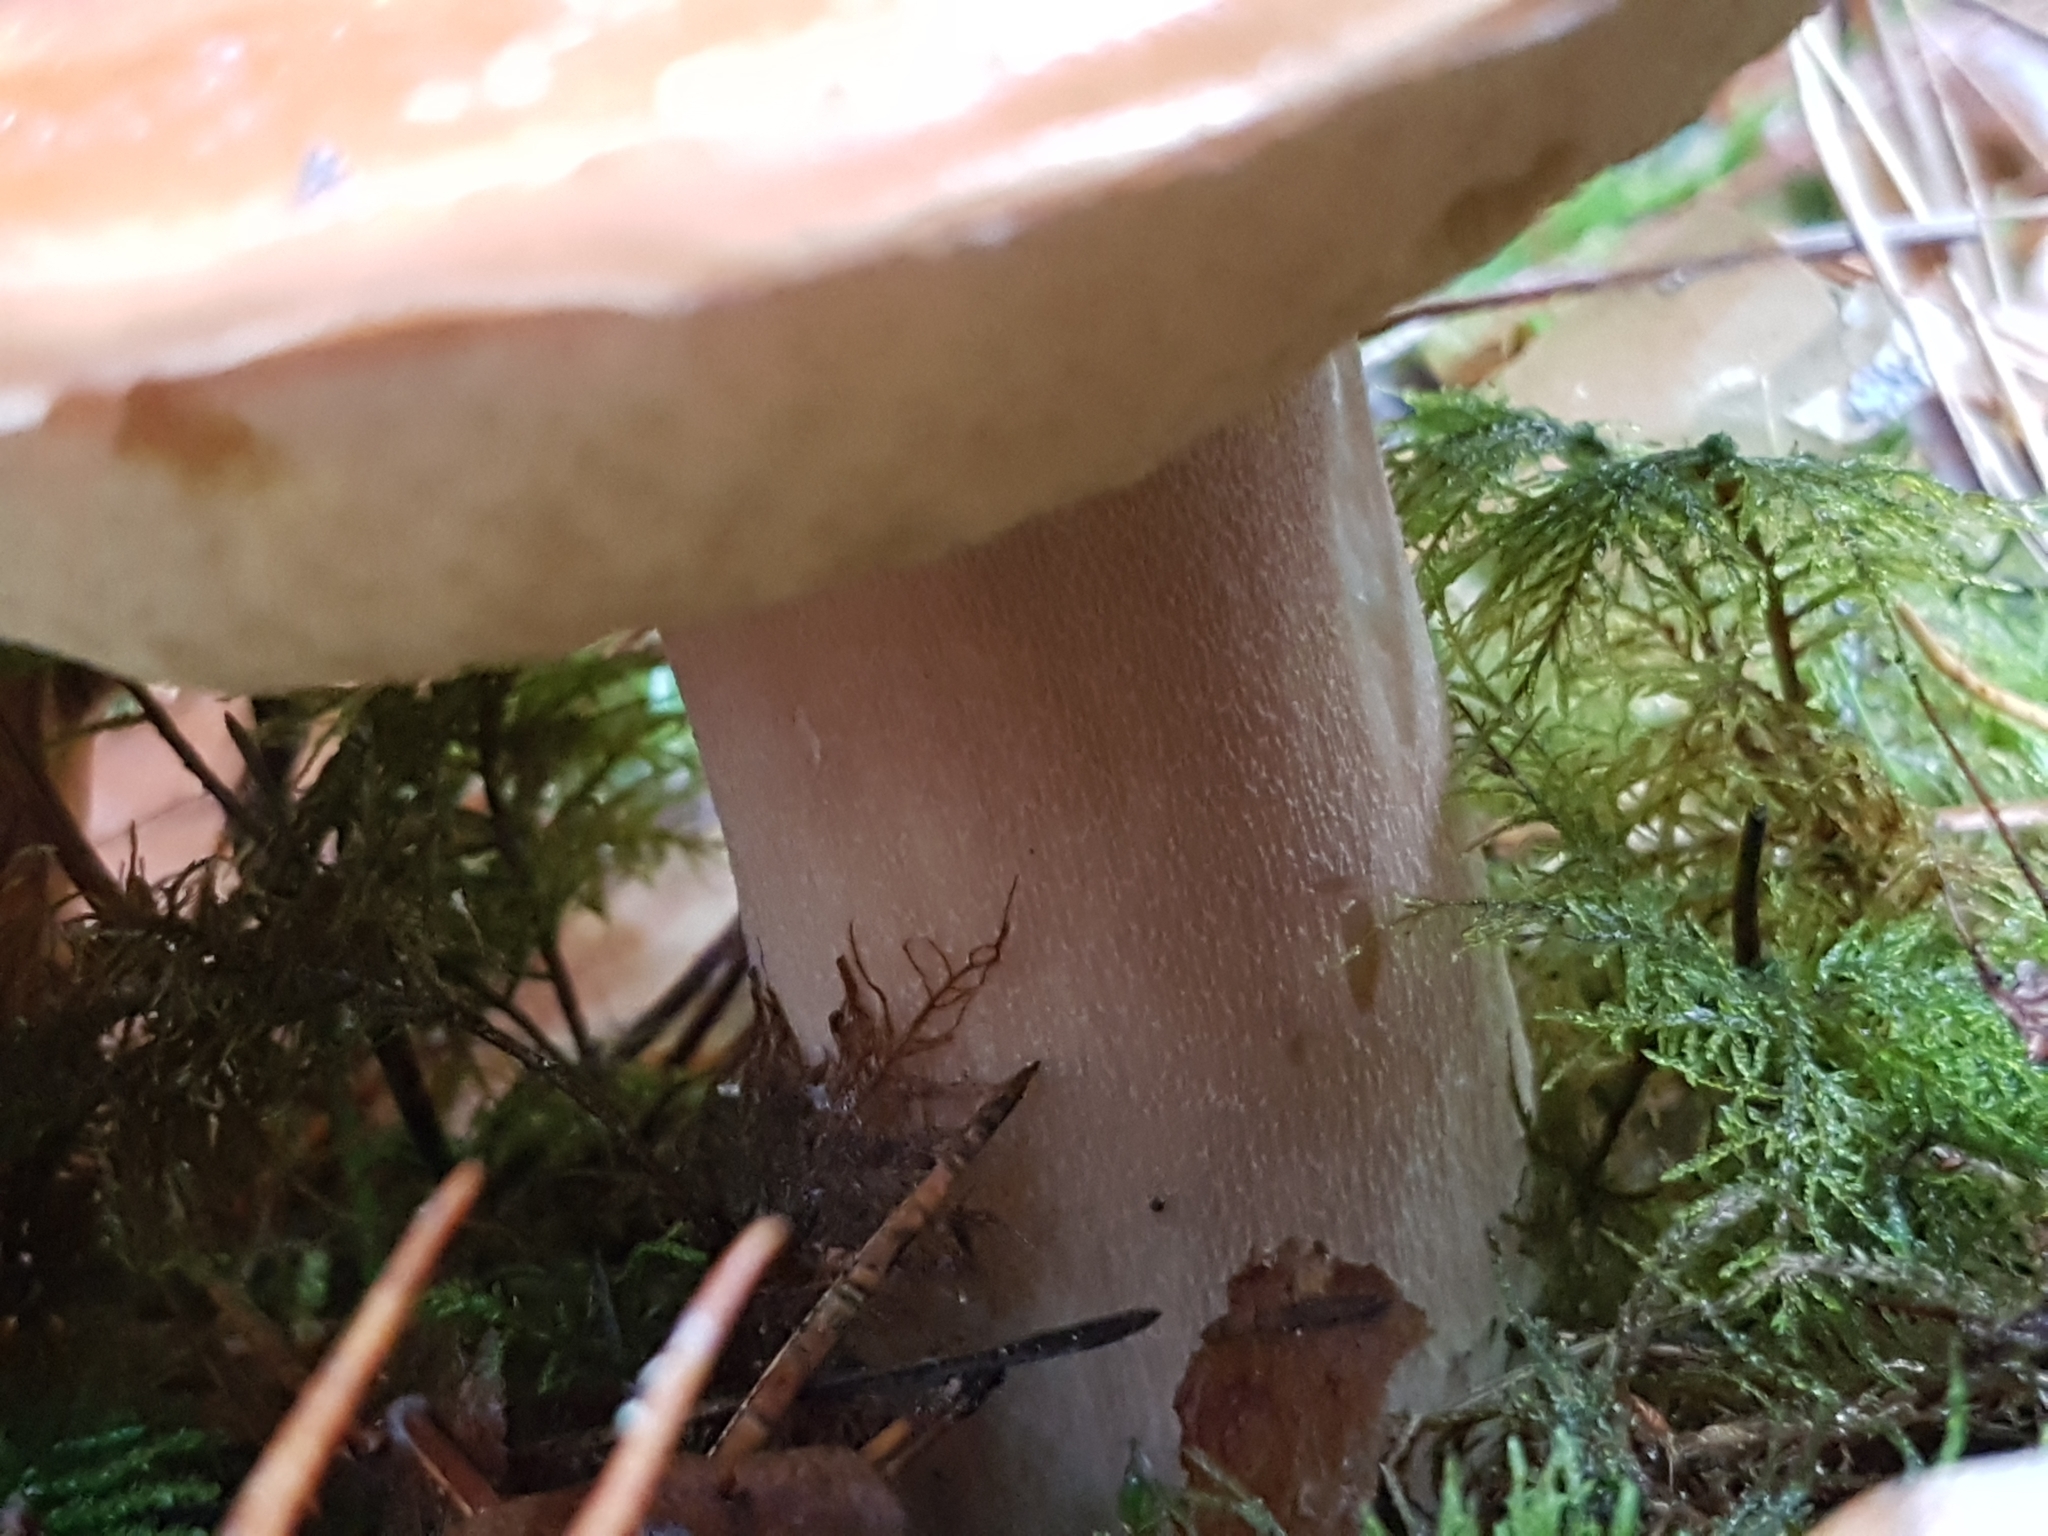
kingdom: Fungi
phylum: Basidiomycota
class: Agaricomycetes
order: Boletales
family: Boletaceae
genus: Boletus
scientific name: Boletus edulis
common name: Cep
